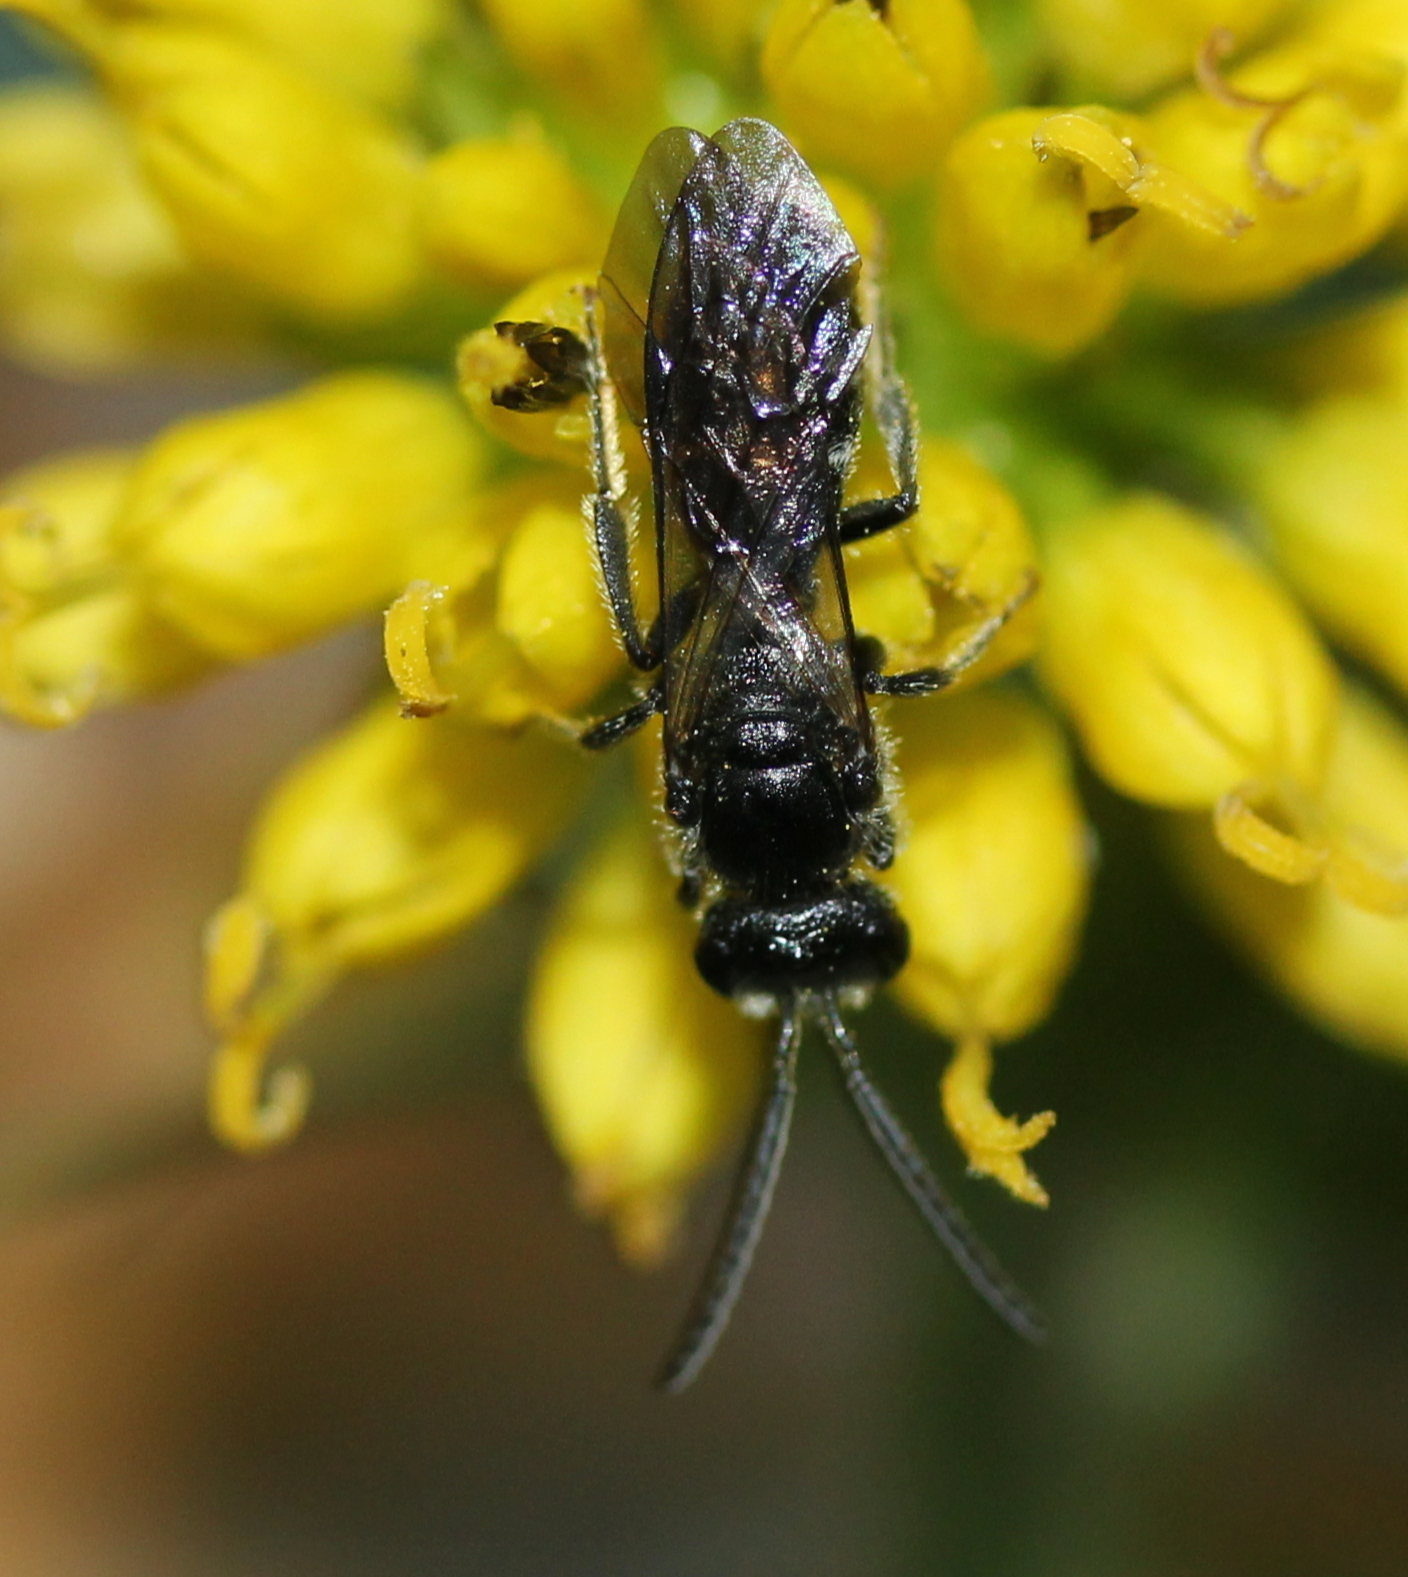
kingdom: Animalia
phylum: Arthropoda
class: Insecta
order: Hymenoptera
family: Halictidae
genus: Lasioglossum
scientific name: Lasioglossum pectorale
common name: Rugose-chested sweat bee
